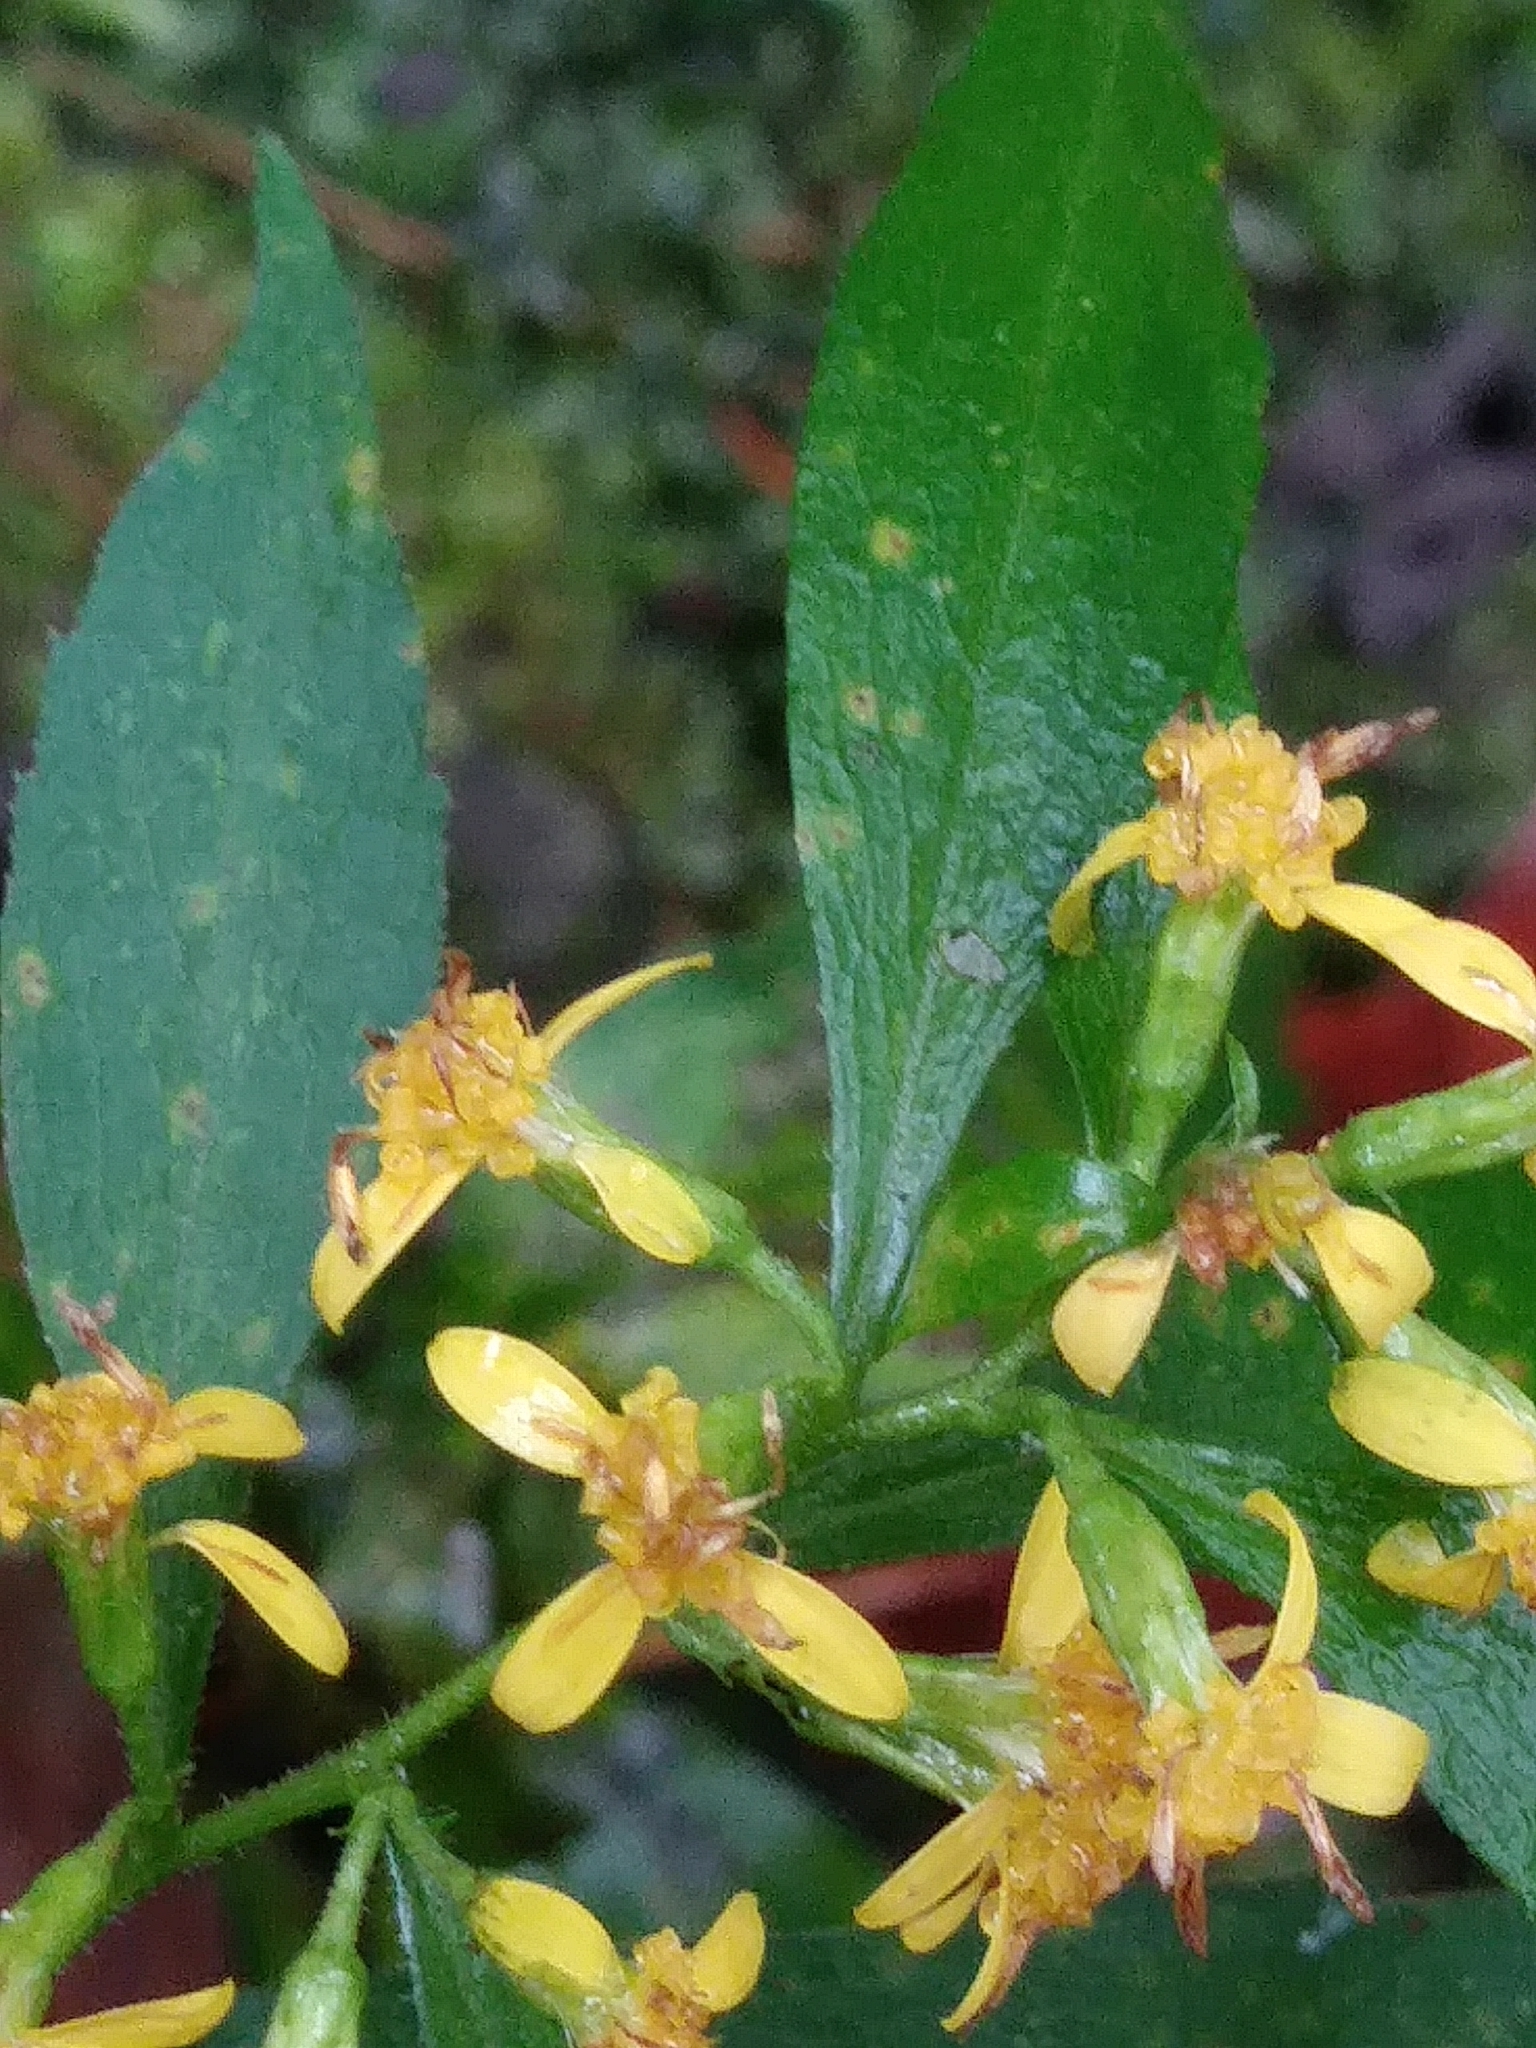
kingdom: Plantae
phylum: Tracheophyta
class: Magnoliopsida
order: Asterales
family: Asteraceae
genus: Solidago
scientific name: Solidago caesia
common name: Woodland goldenrod
